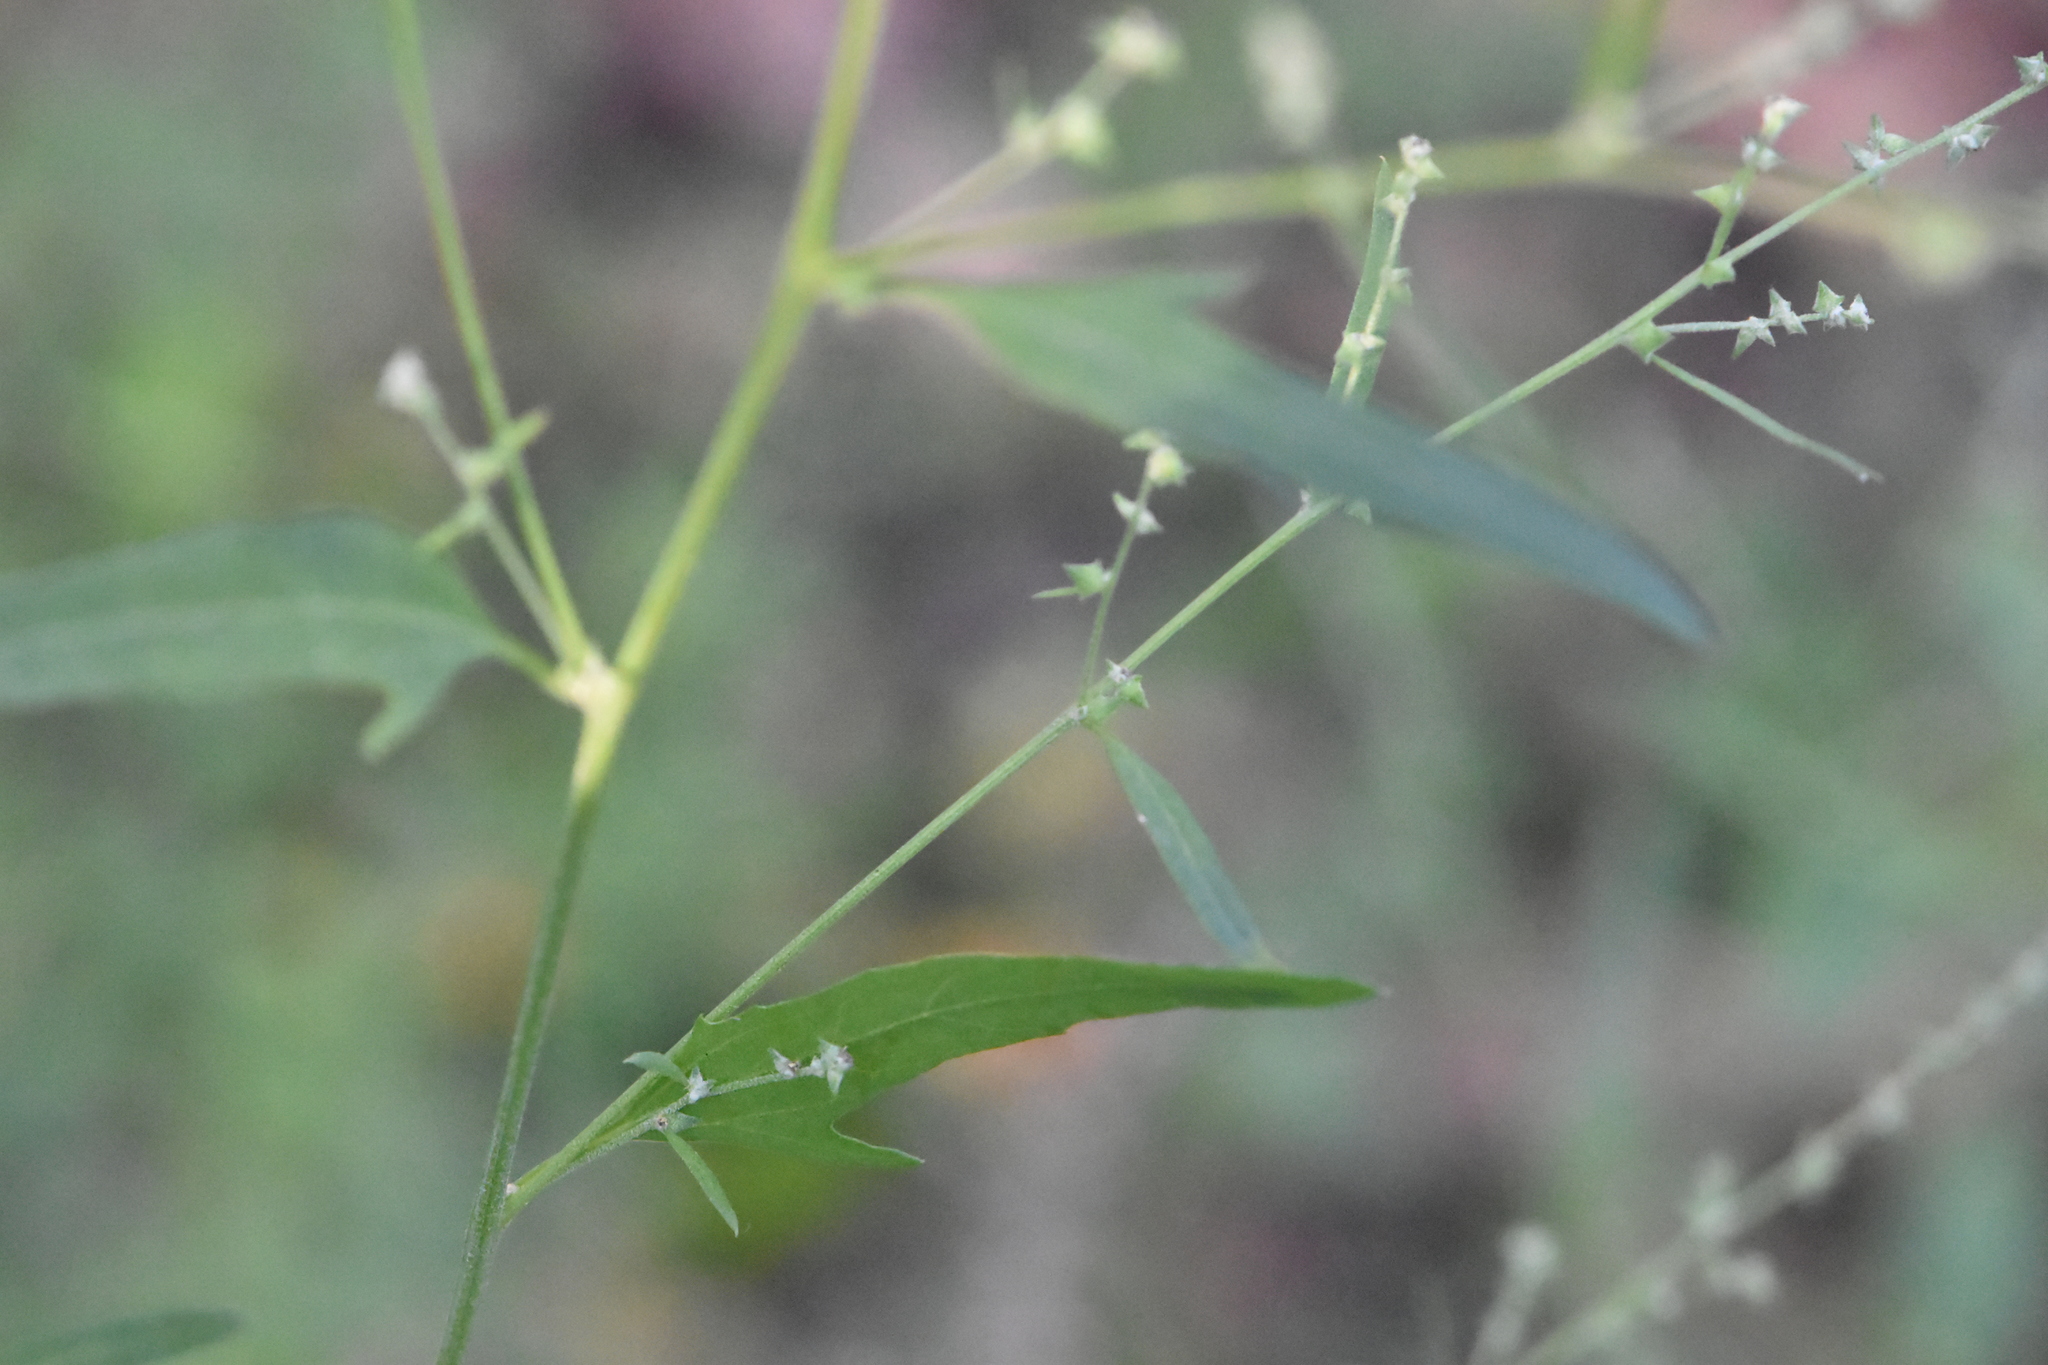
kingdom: Plantae
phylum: Tracheophyta
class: Magnoliopsida
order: Caryophyllales
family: Amaranthaceae
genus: Atriplex
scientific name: Atriplex patula
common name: Common orache
